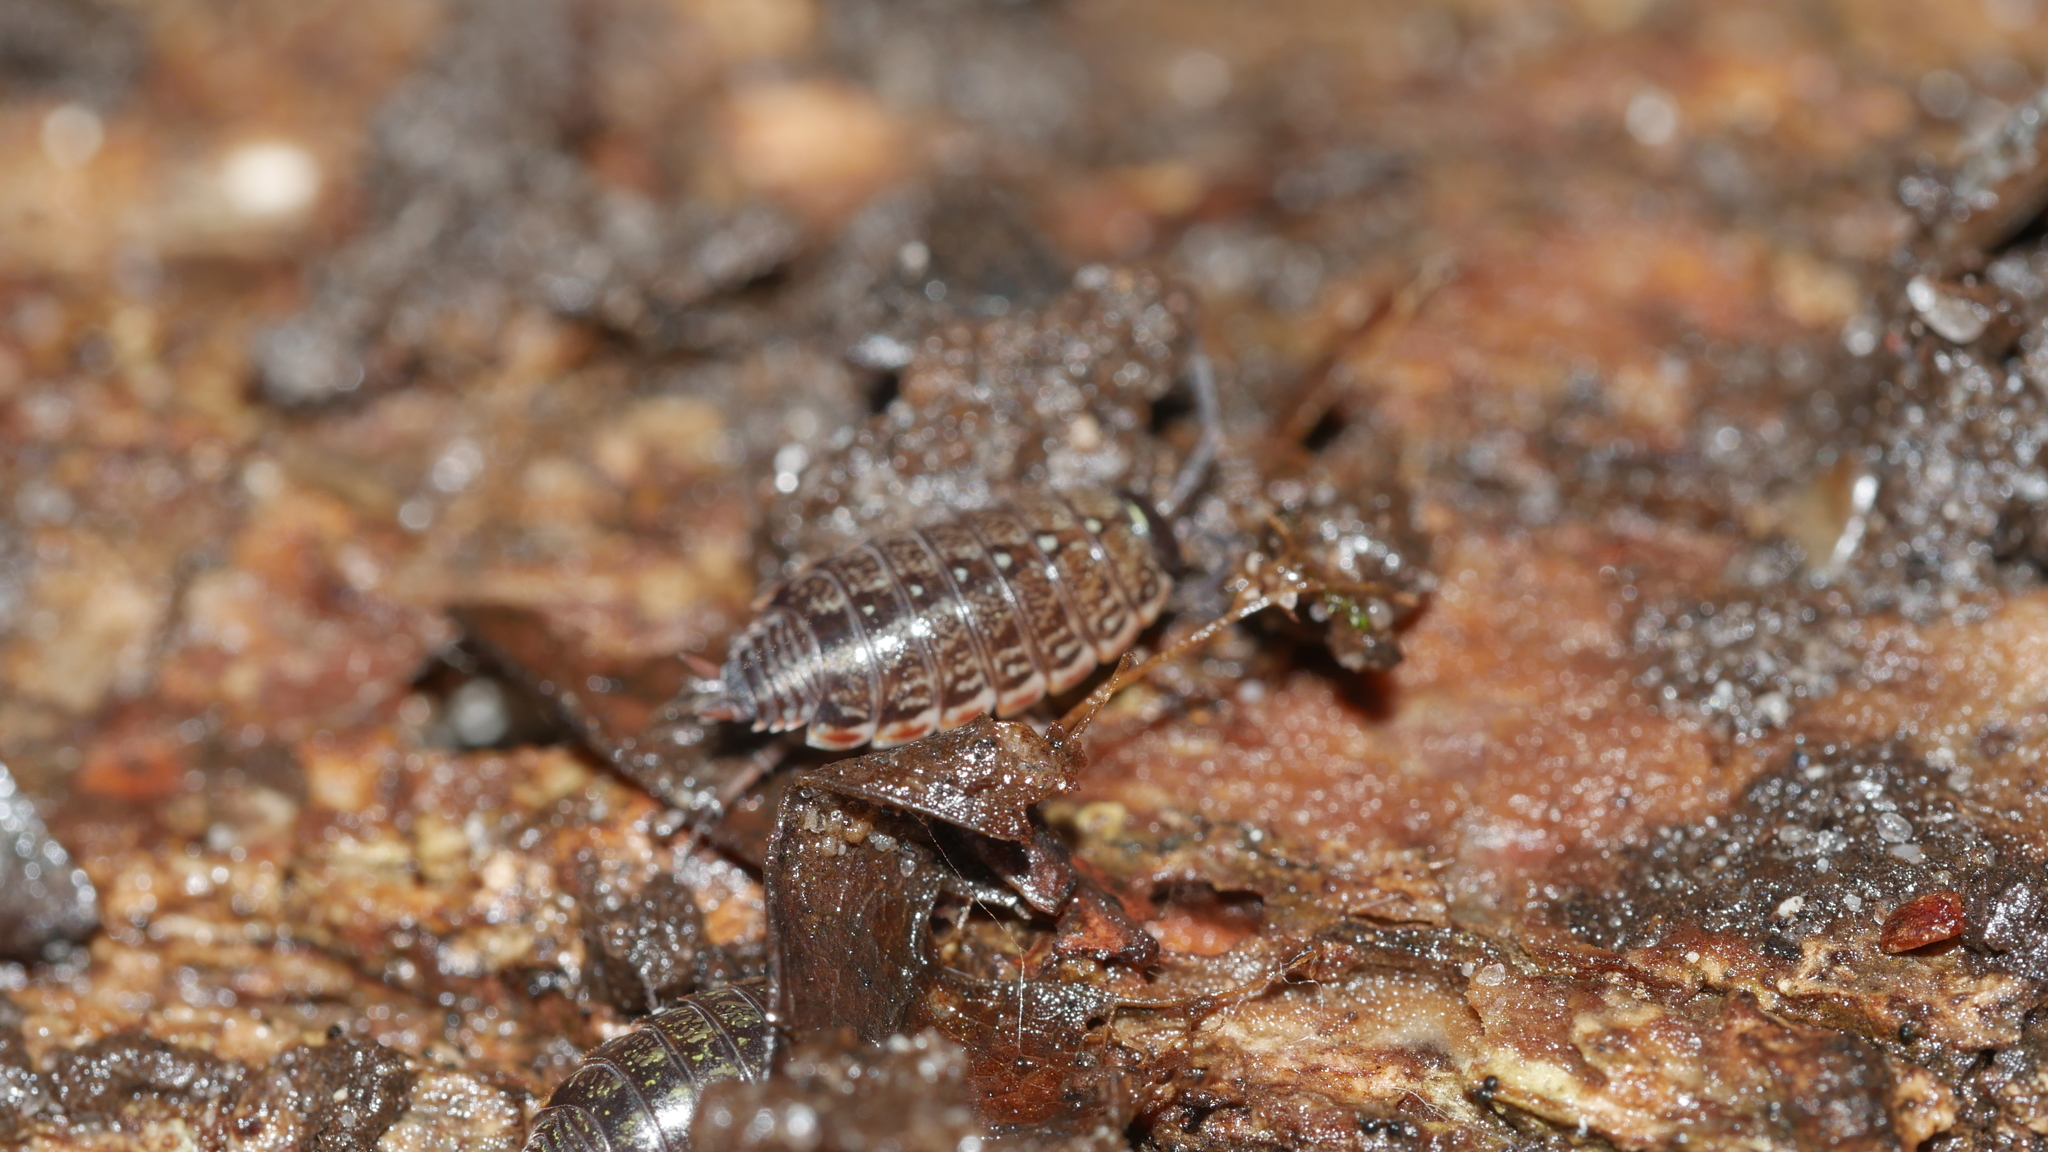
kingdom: Animalia
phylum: Arthropoda
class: Malacostraca
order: Isopoda
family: Philosciidae
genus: Philoscia
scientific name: Philoscia muscorum
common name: Common striped woodlouse
